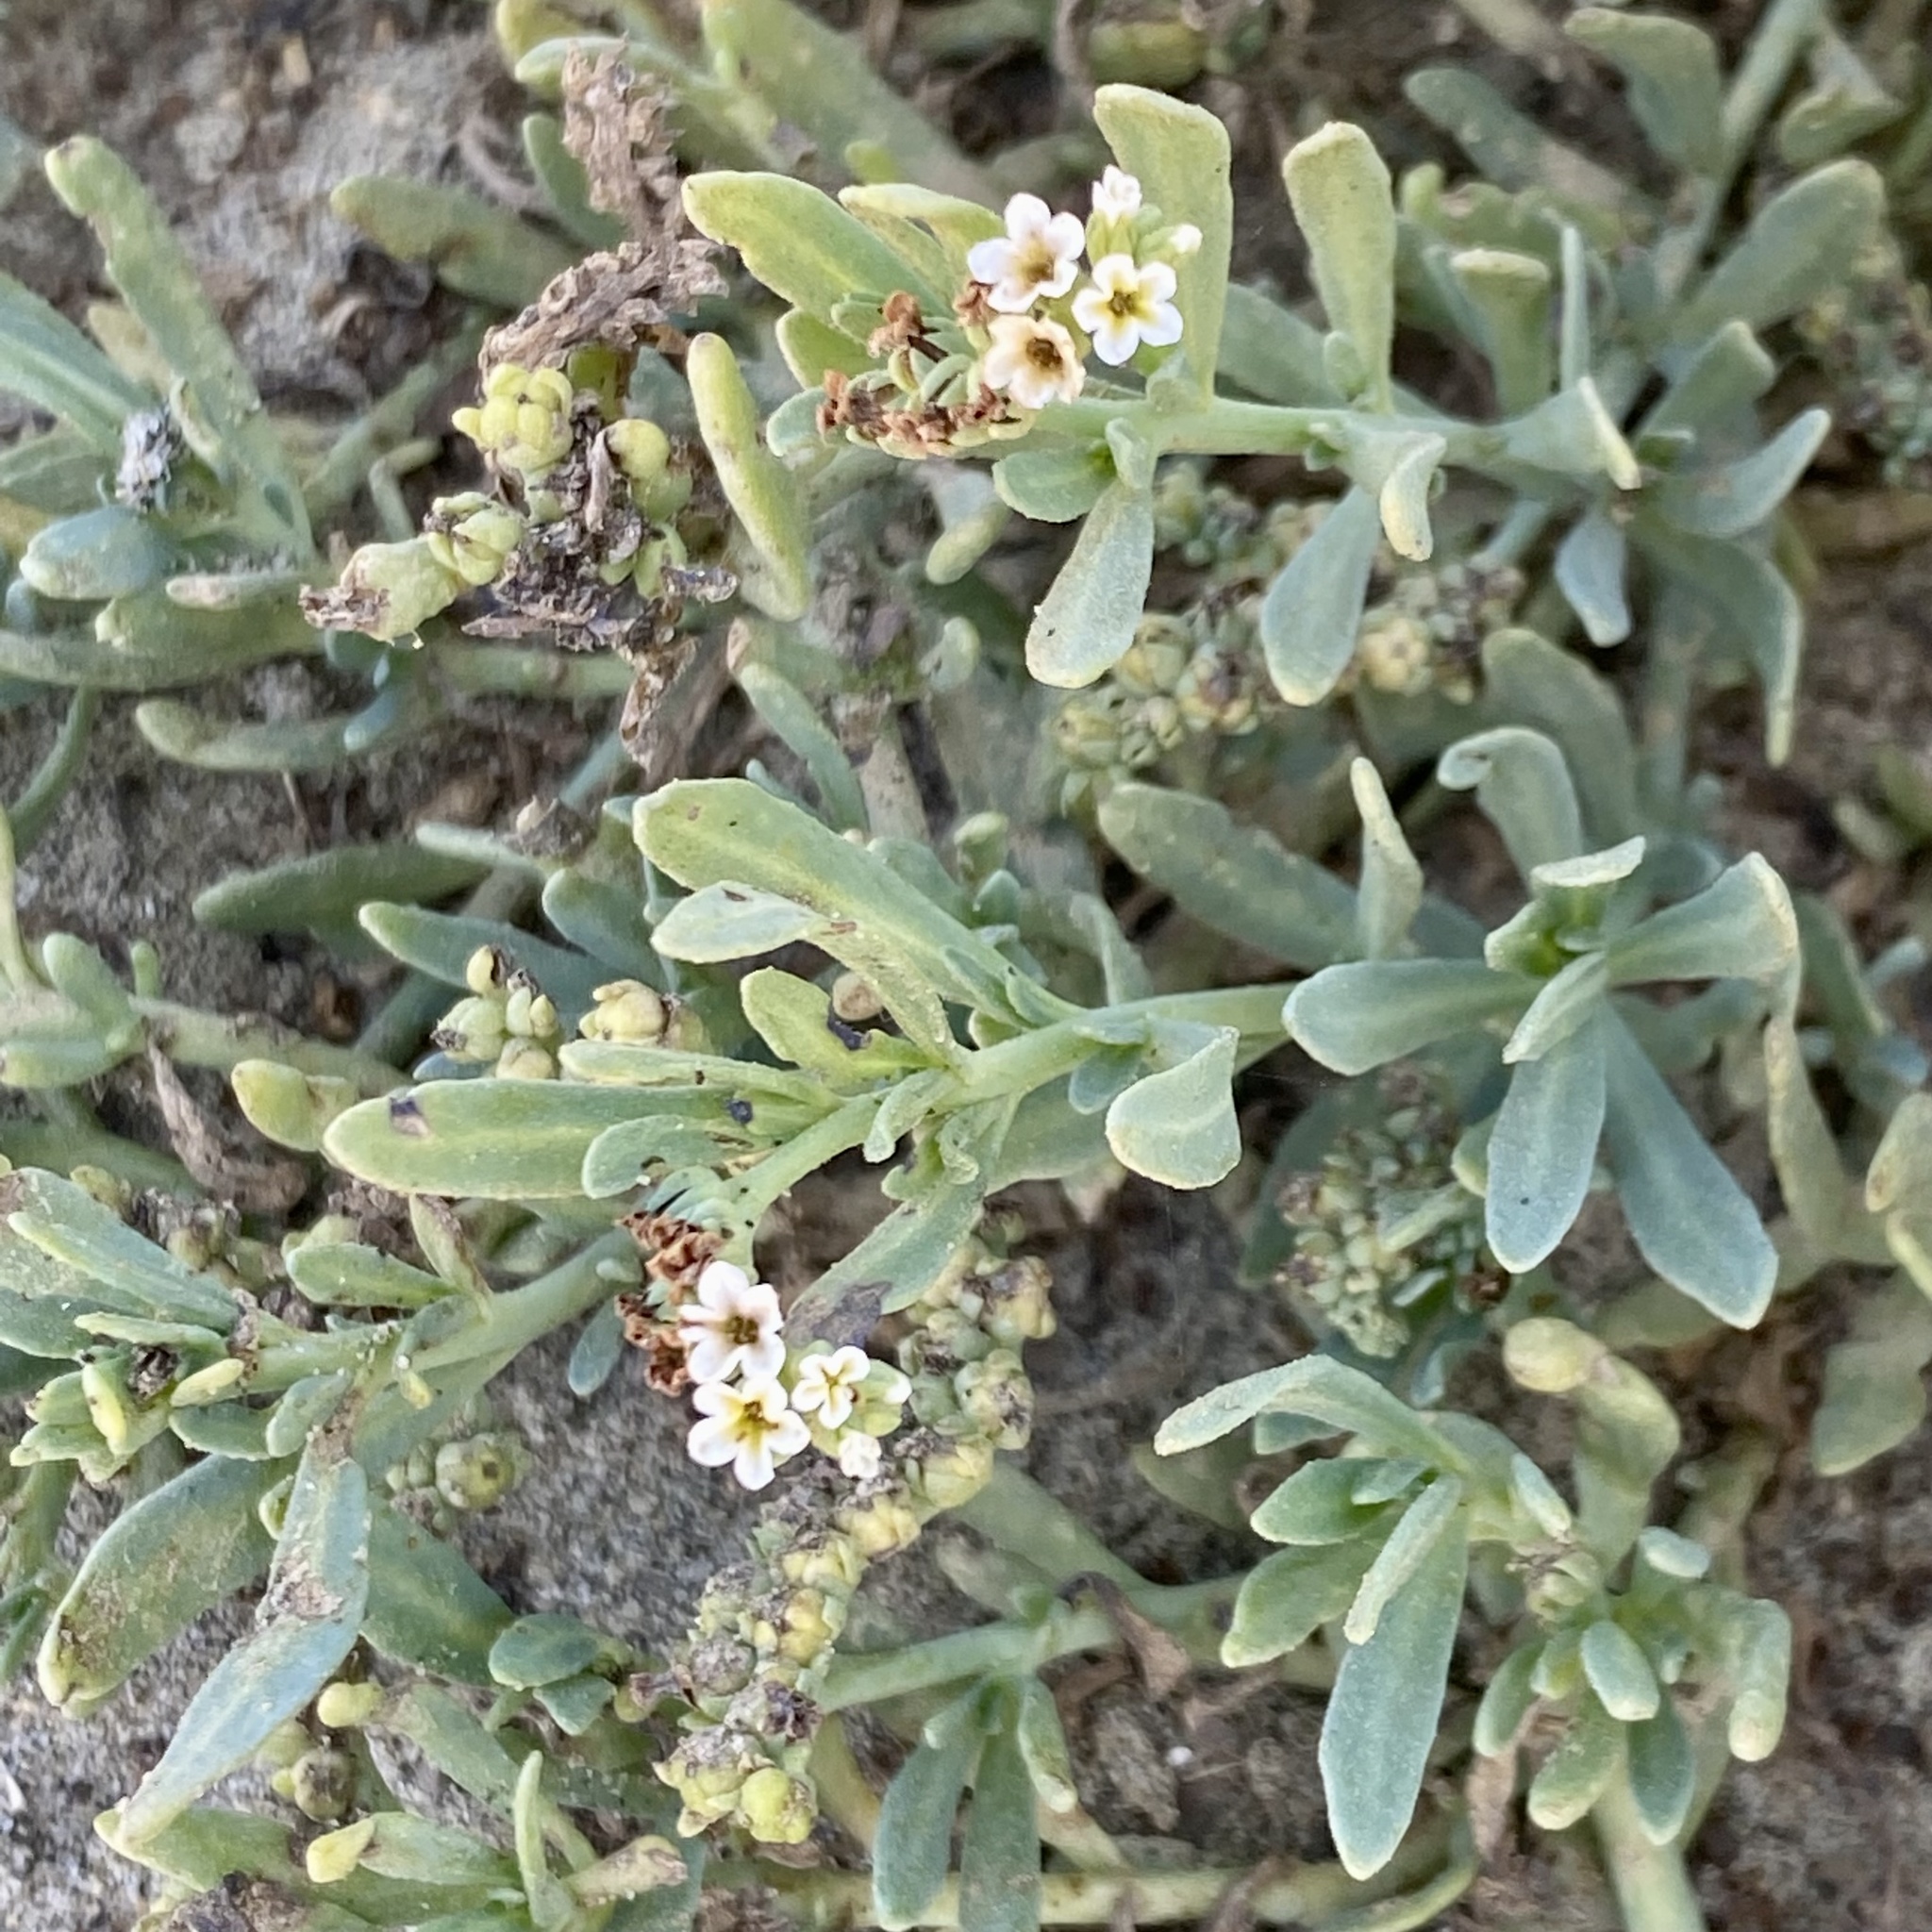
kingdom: Plantae
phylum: Tracheophyta
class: Magnoliopsida
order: Boraginales
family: Heliotropiaceae
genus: Heliotropium
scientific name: Heliotropium curassavicum
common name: Seaside heliotrope
